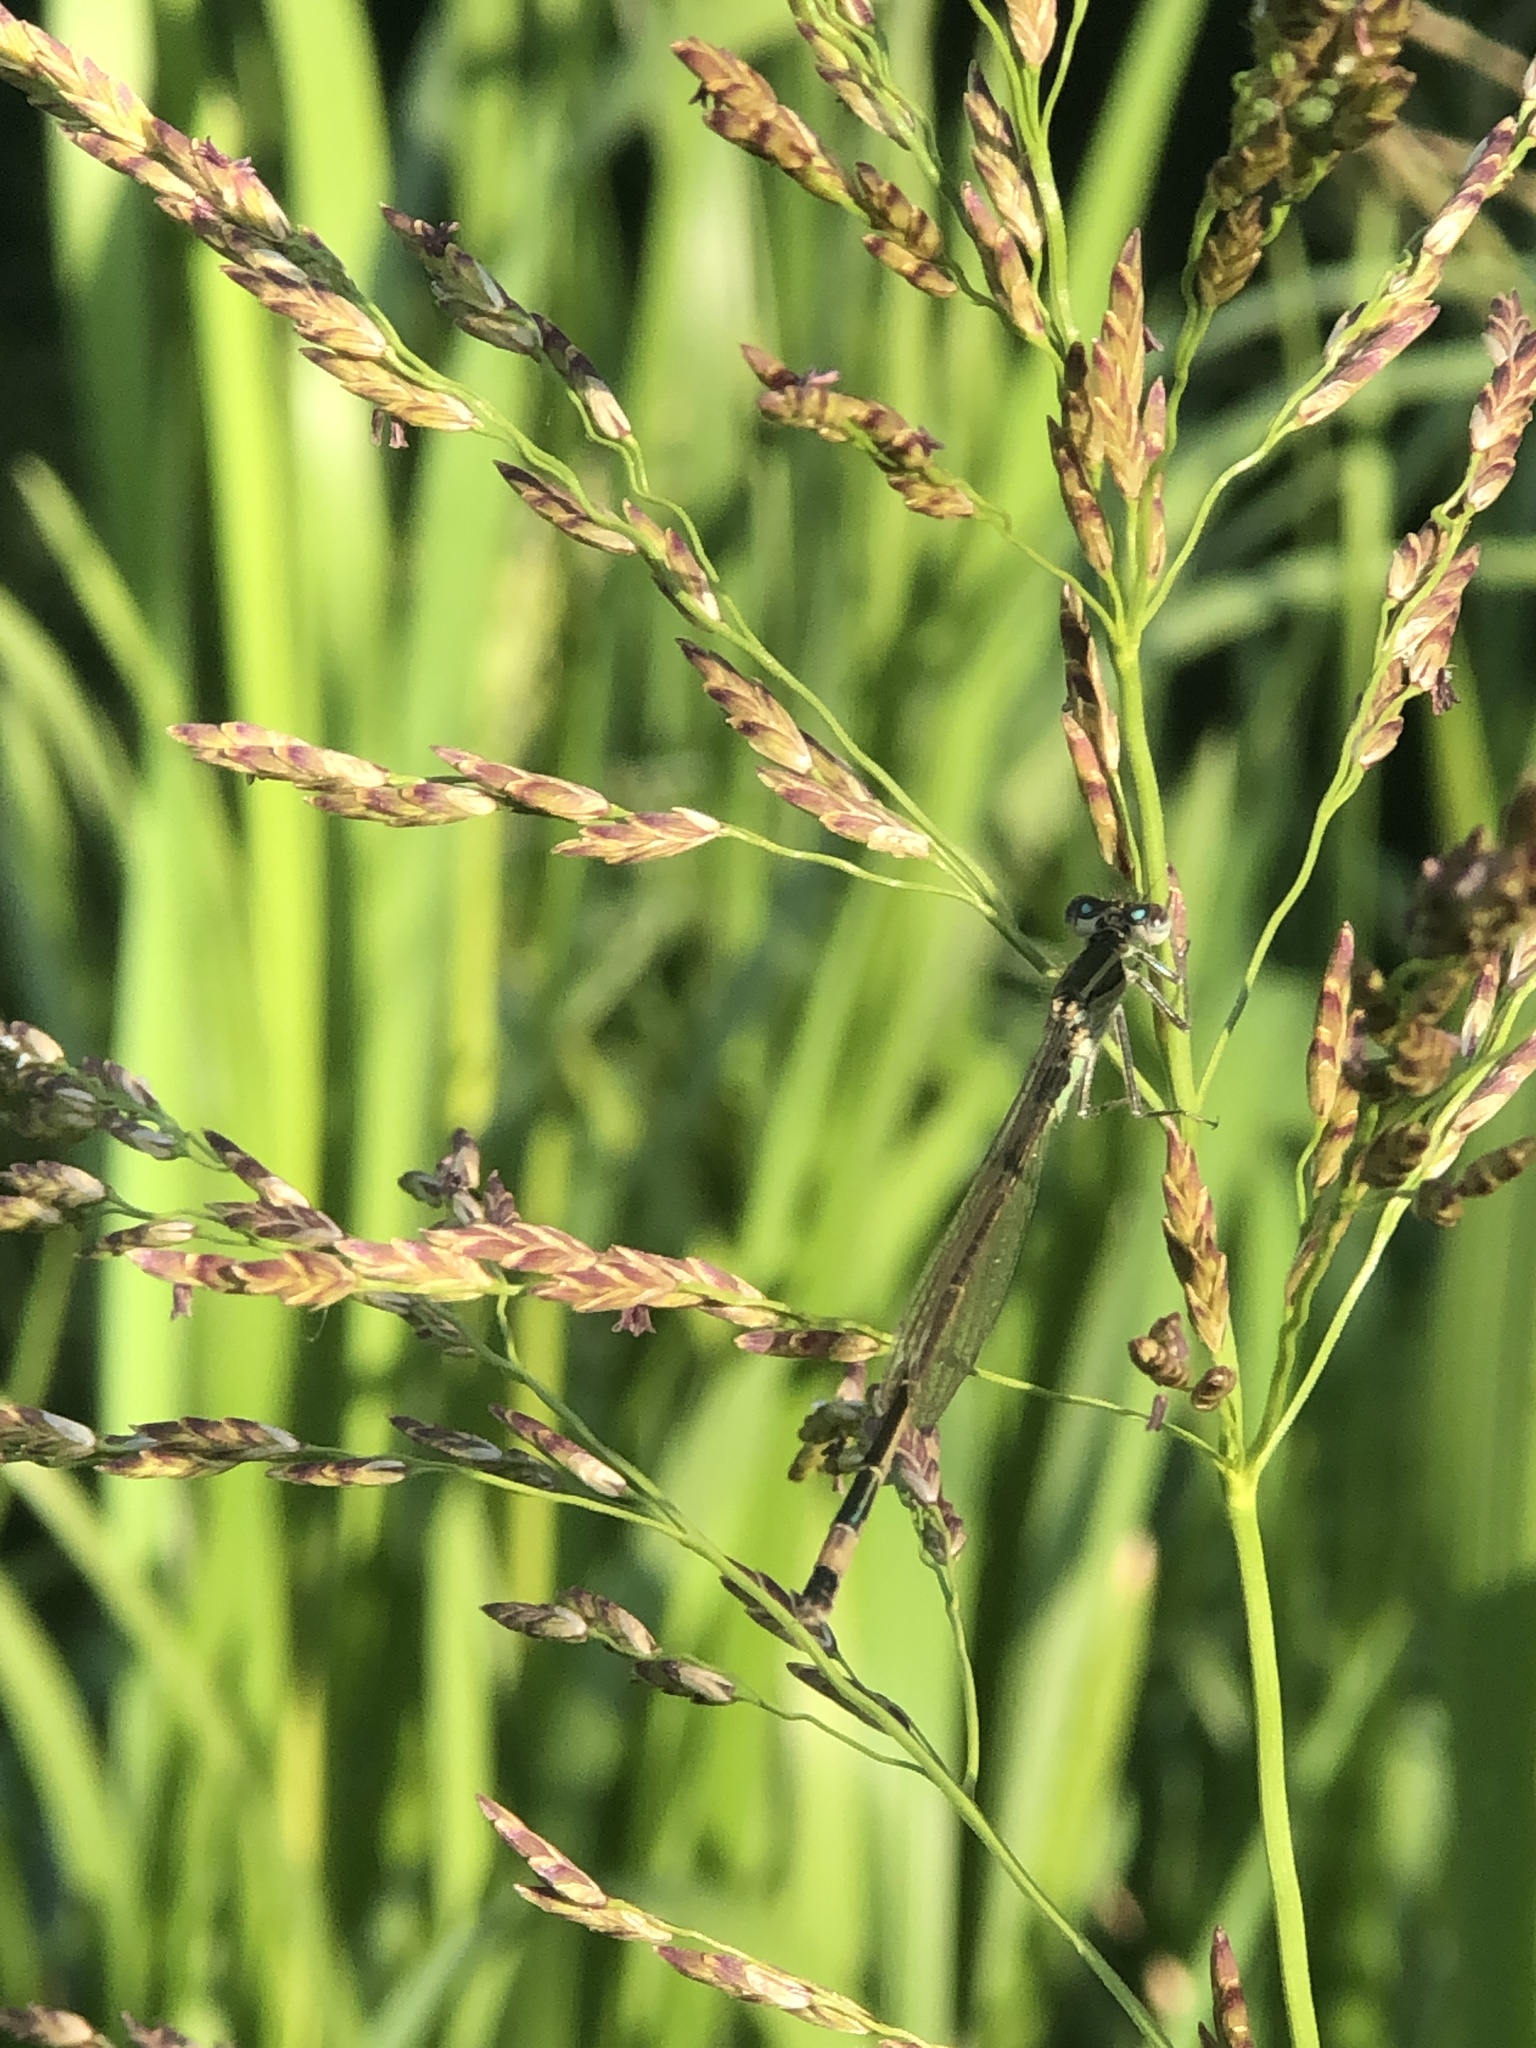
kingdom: Animalia
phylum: Arthropoda
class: Insecta
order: Odonata
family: Coenagrionidae
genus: Ischnura
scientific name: Ischnura elegans
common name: Blue-tailed damselfly
